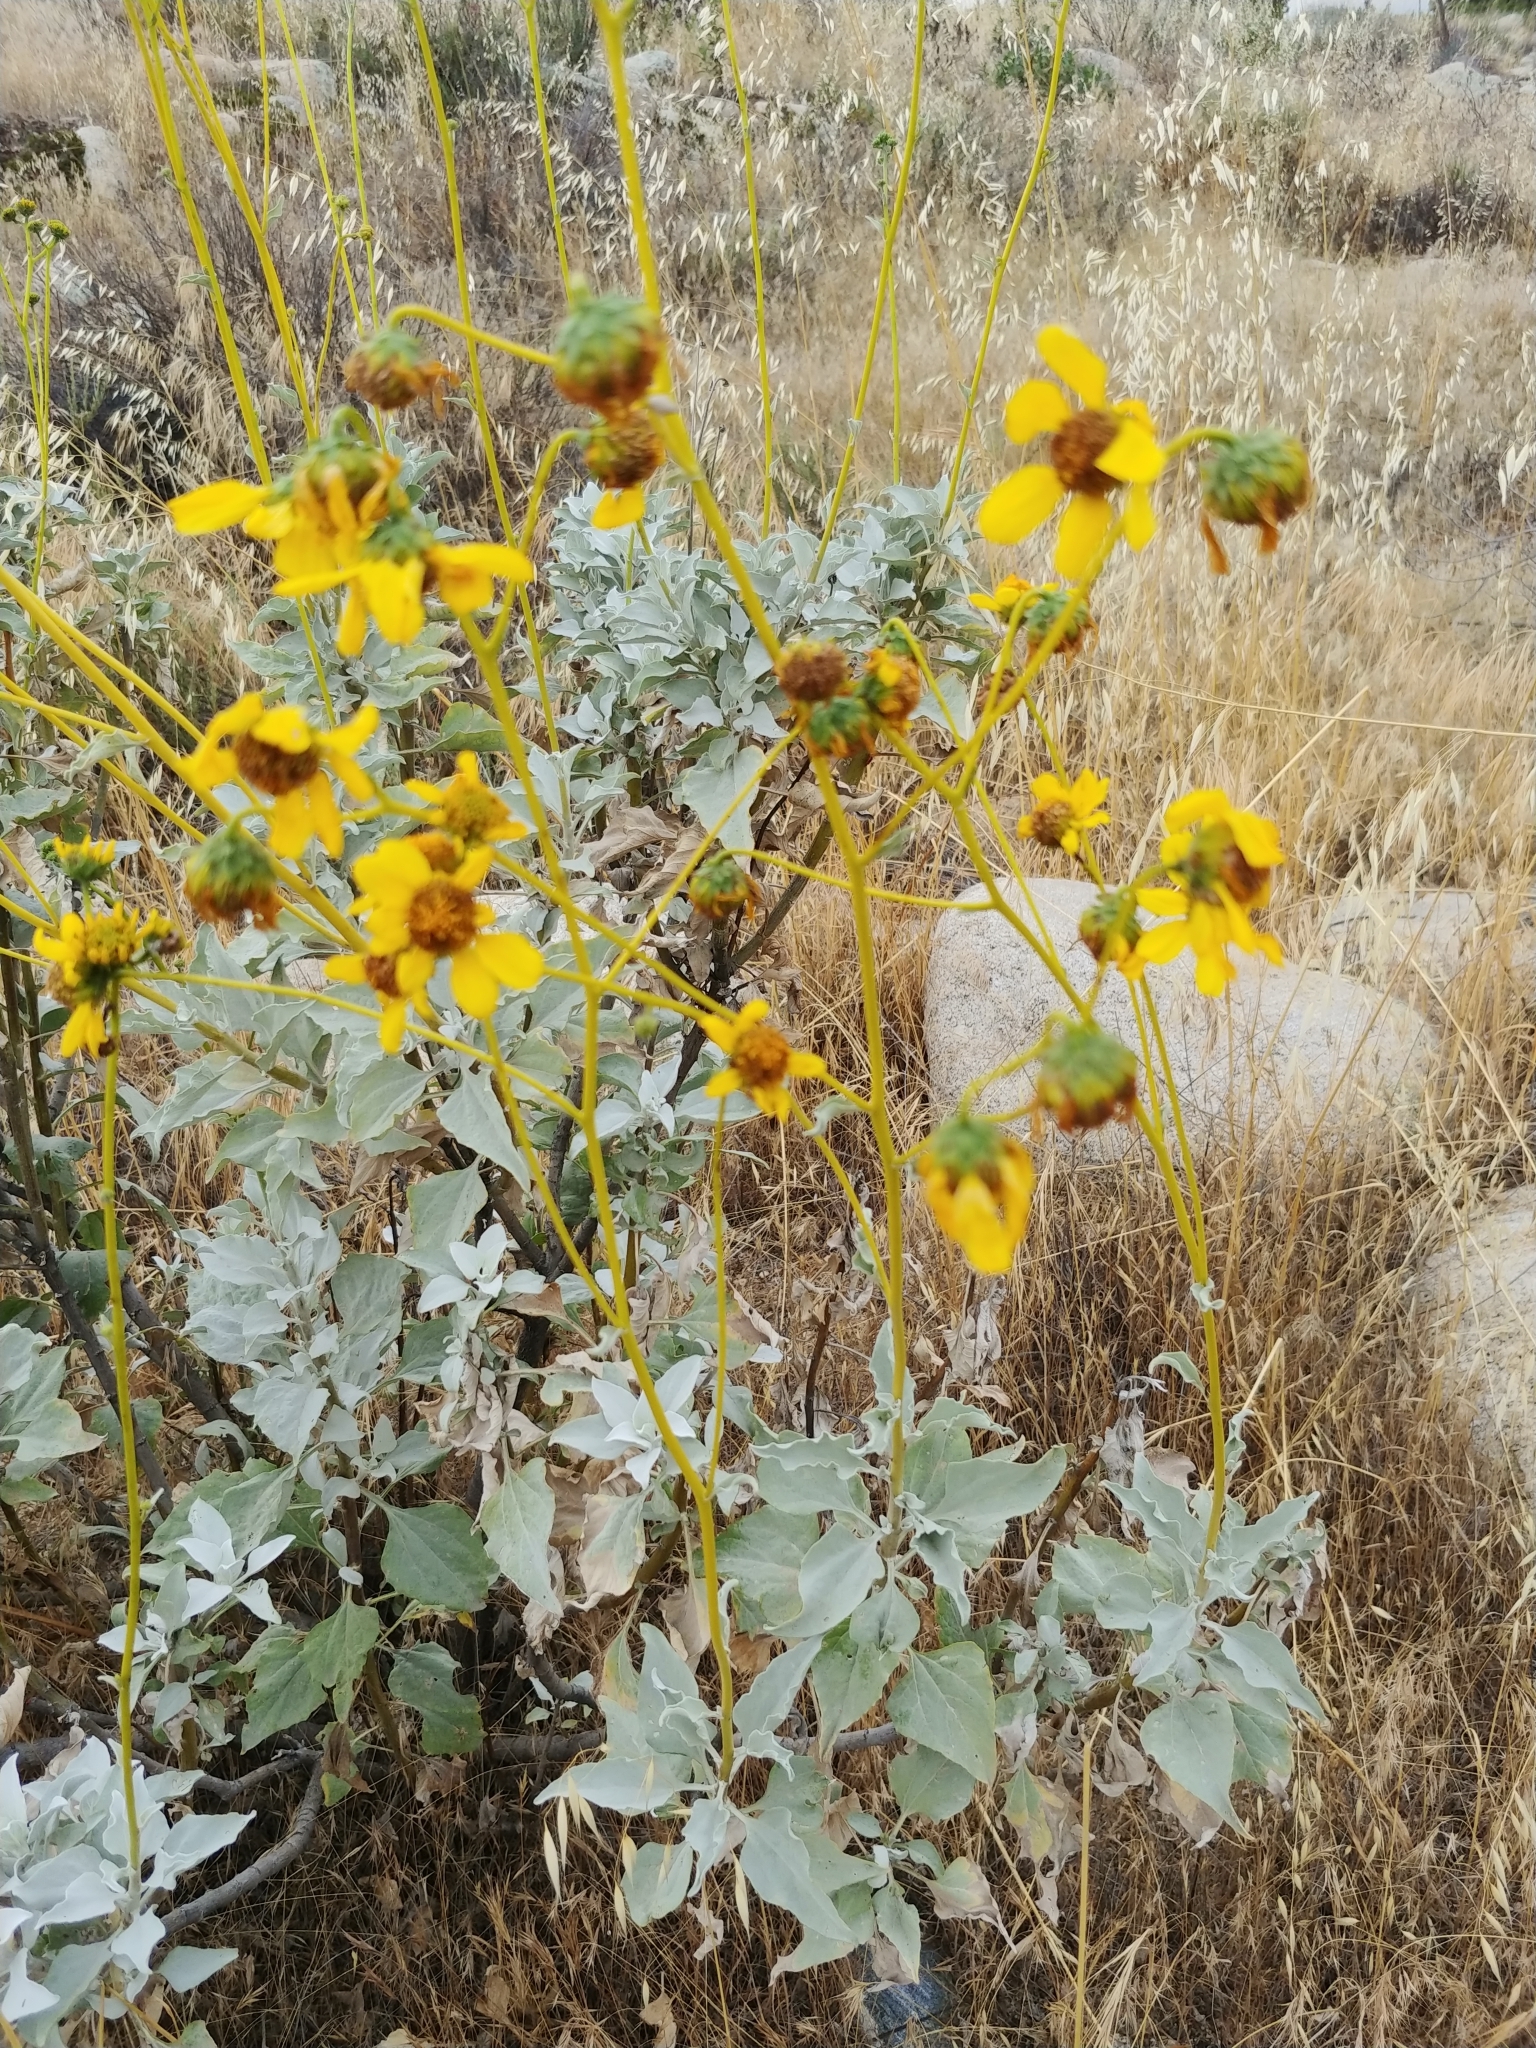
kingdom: Plantae
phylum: Tracheophyta
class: Magnoliopsida
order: Asterales
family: Asteraceae
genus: Encelia
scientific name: Encelia farinosa
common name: Brittlebush
